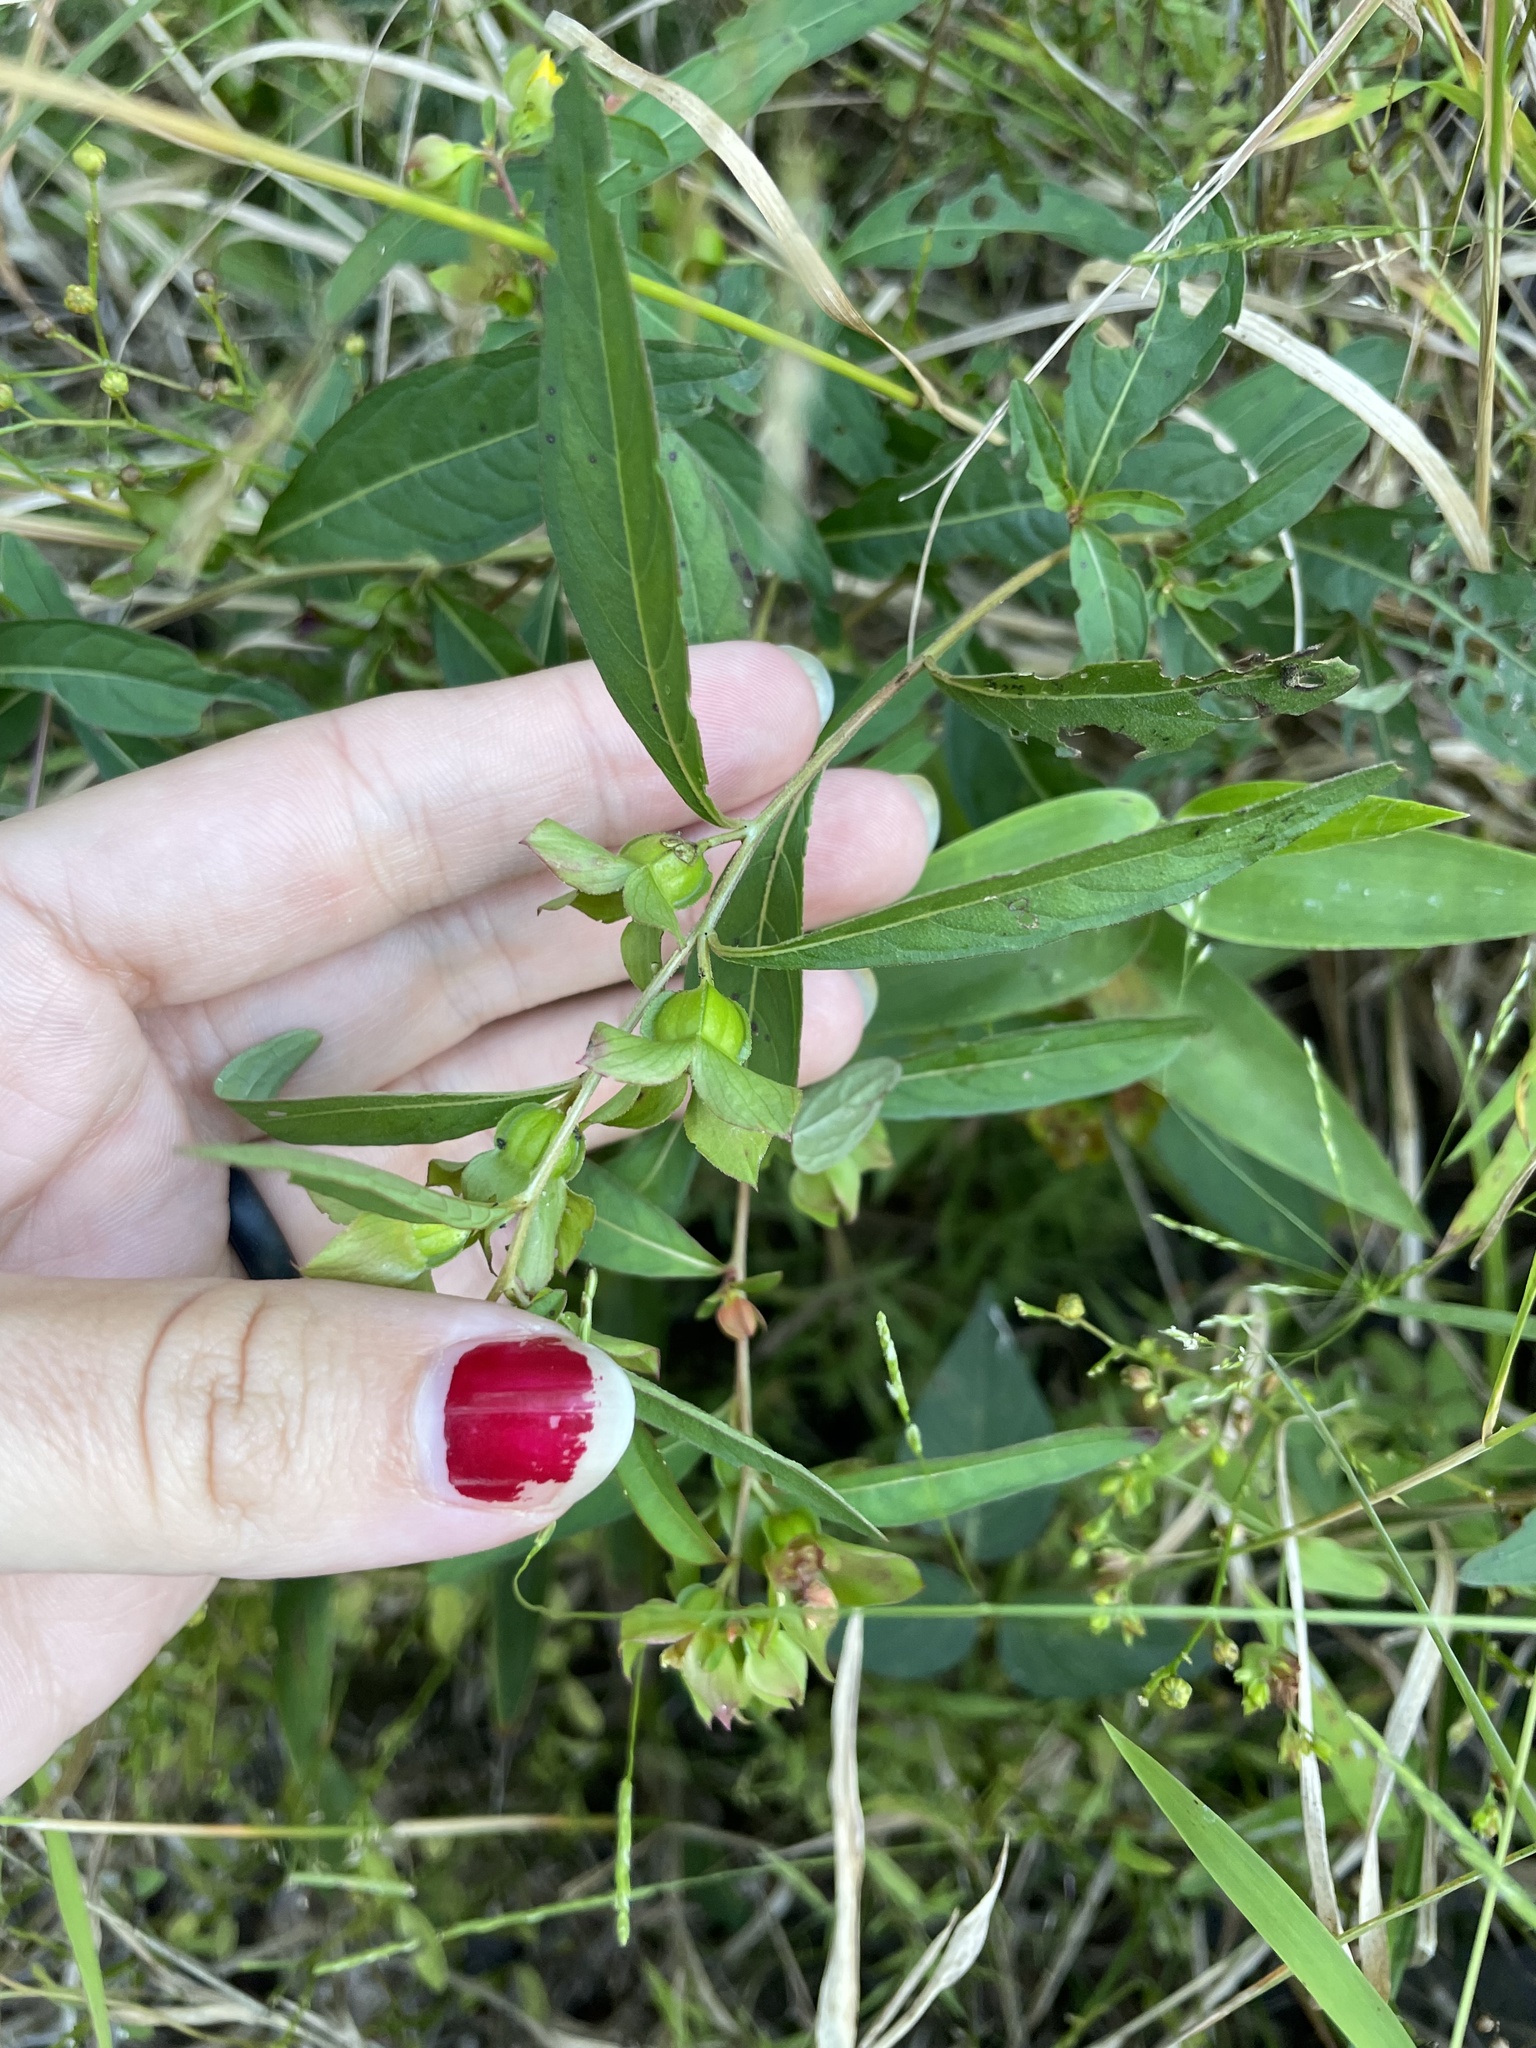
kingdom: Plantae
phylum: Tracheophyta
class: Magnoliopsida
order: Myrtales
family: Onagraceae
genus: Ludwigia
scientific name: Ludwigia alternifolia
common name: Rattlebox
